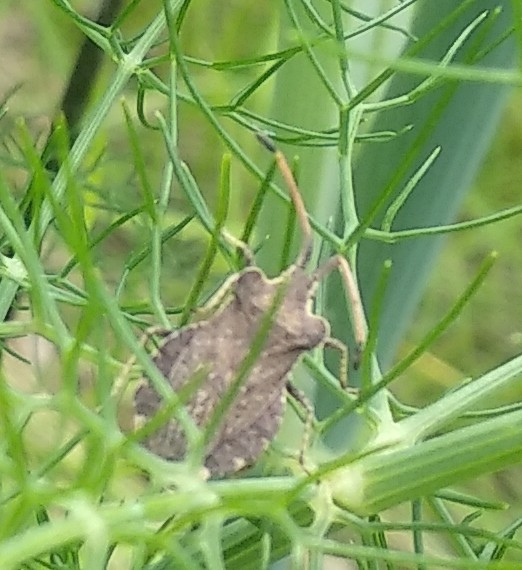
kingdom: Animalia
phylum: Arthropoda
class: Insecta
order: Hemiptera
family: Coreidae
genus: Enoplops
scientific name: Enoplops scapha
